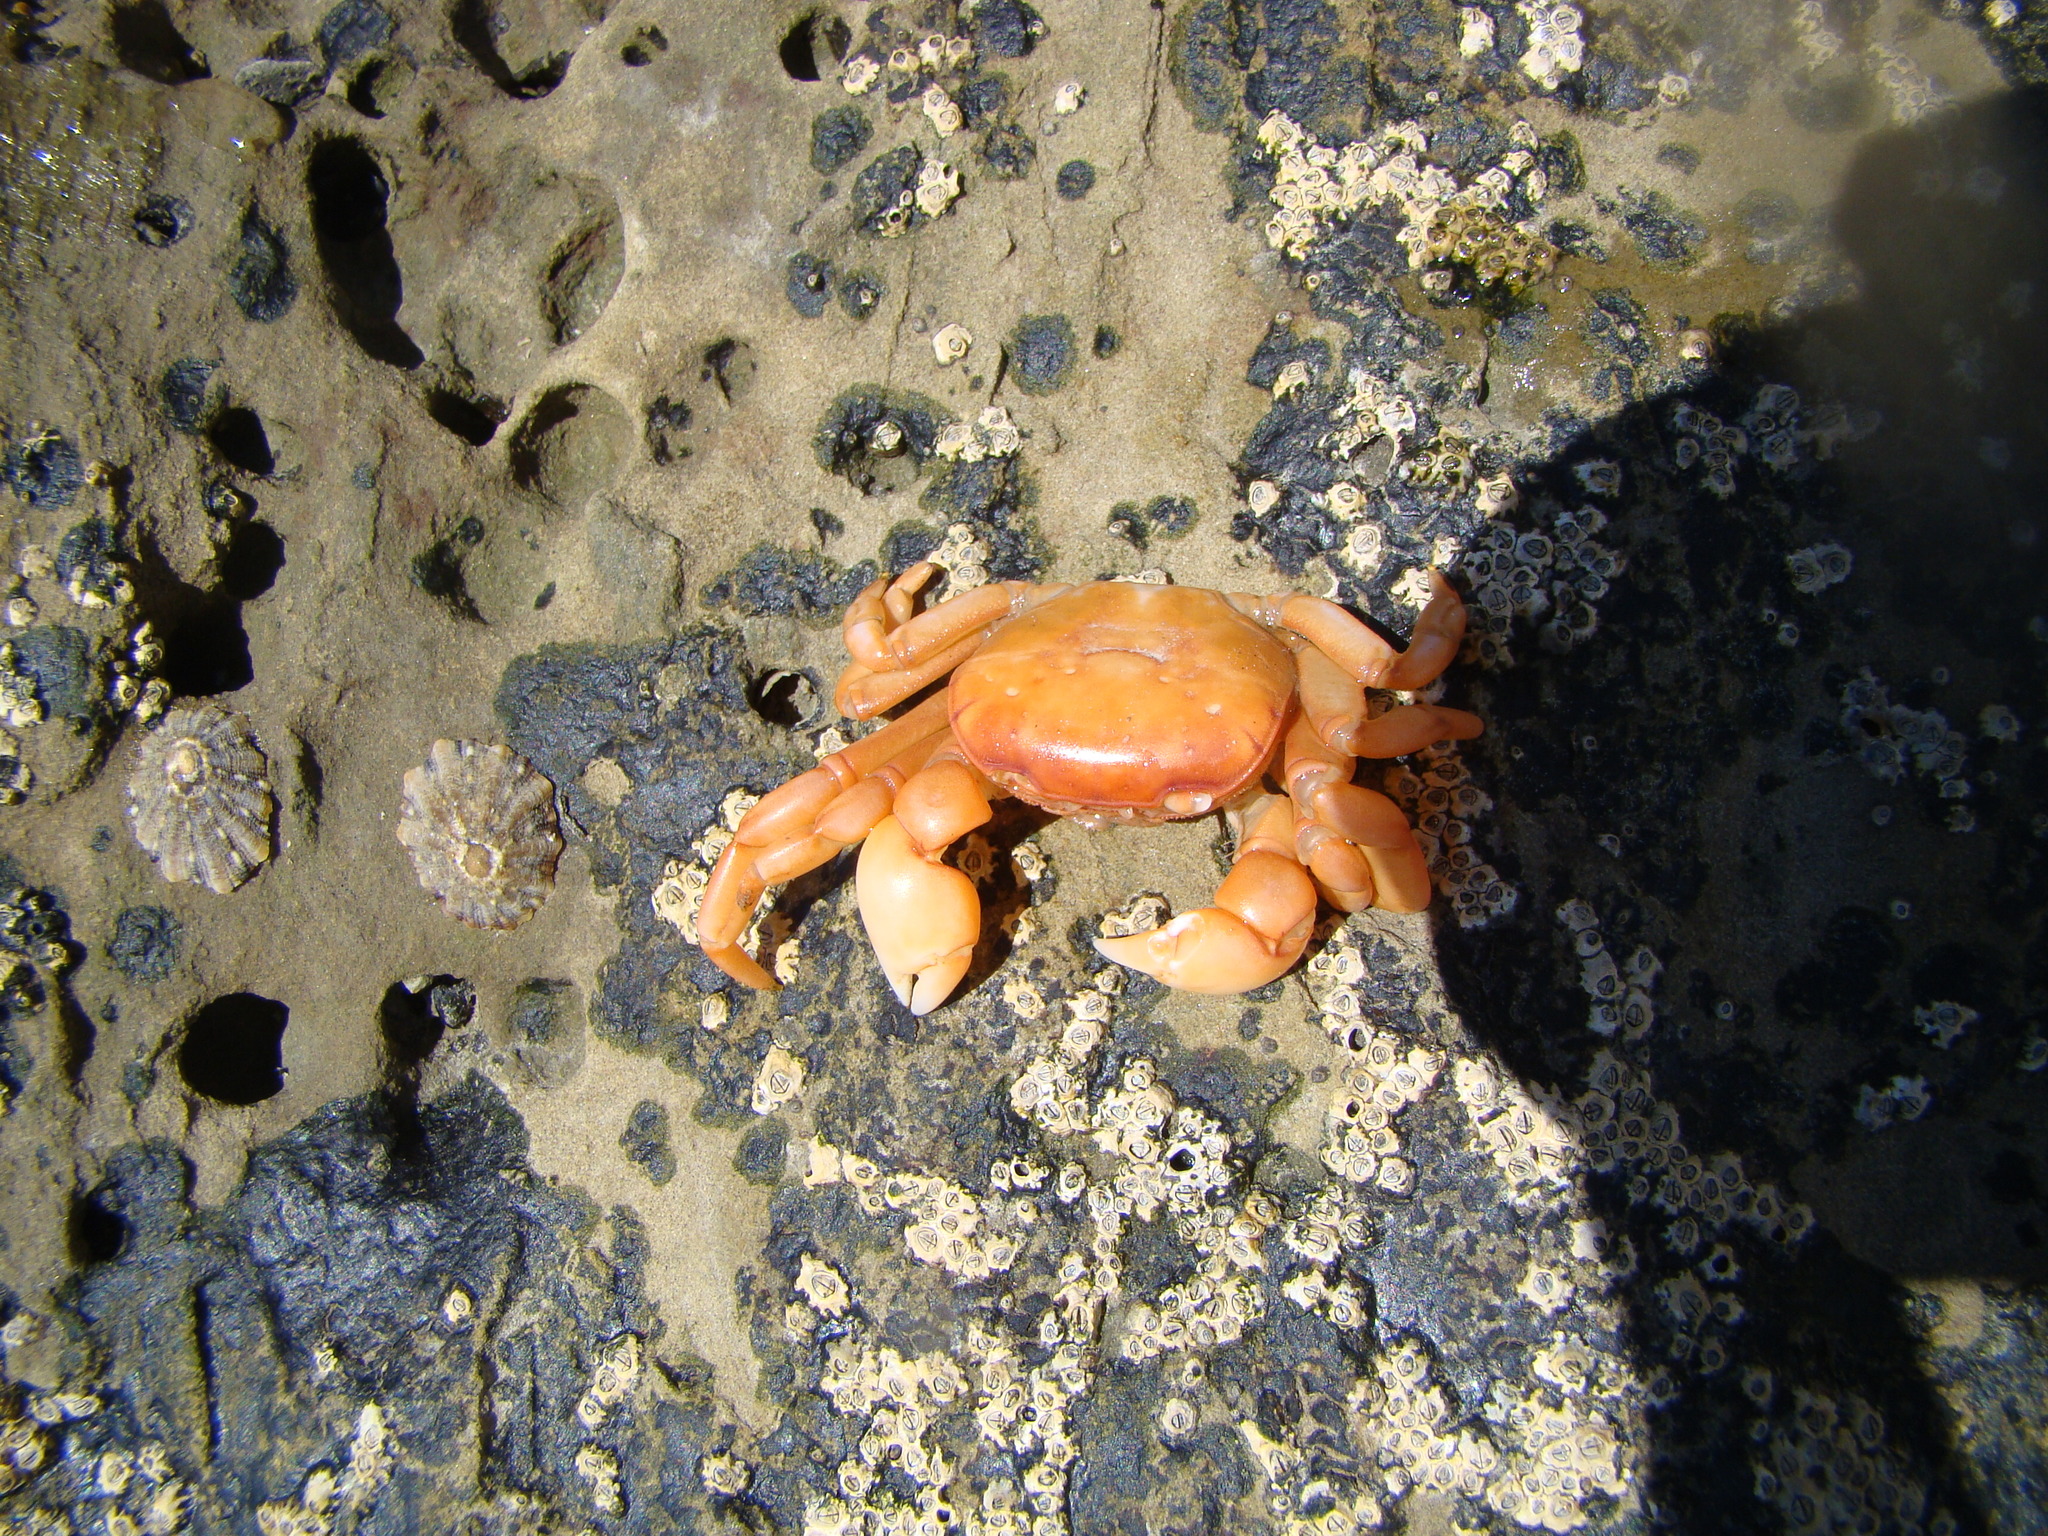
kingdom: Animalia
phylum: Arthropoda
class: Malacostraca
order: Decapoda
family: Varunidae
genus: Cyclograpsus
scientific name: Cyclograpsus insularum
